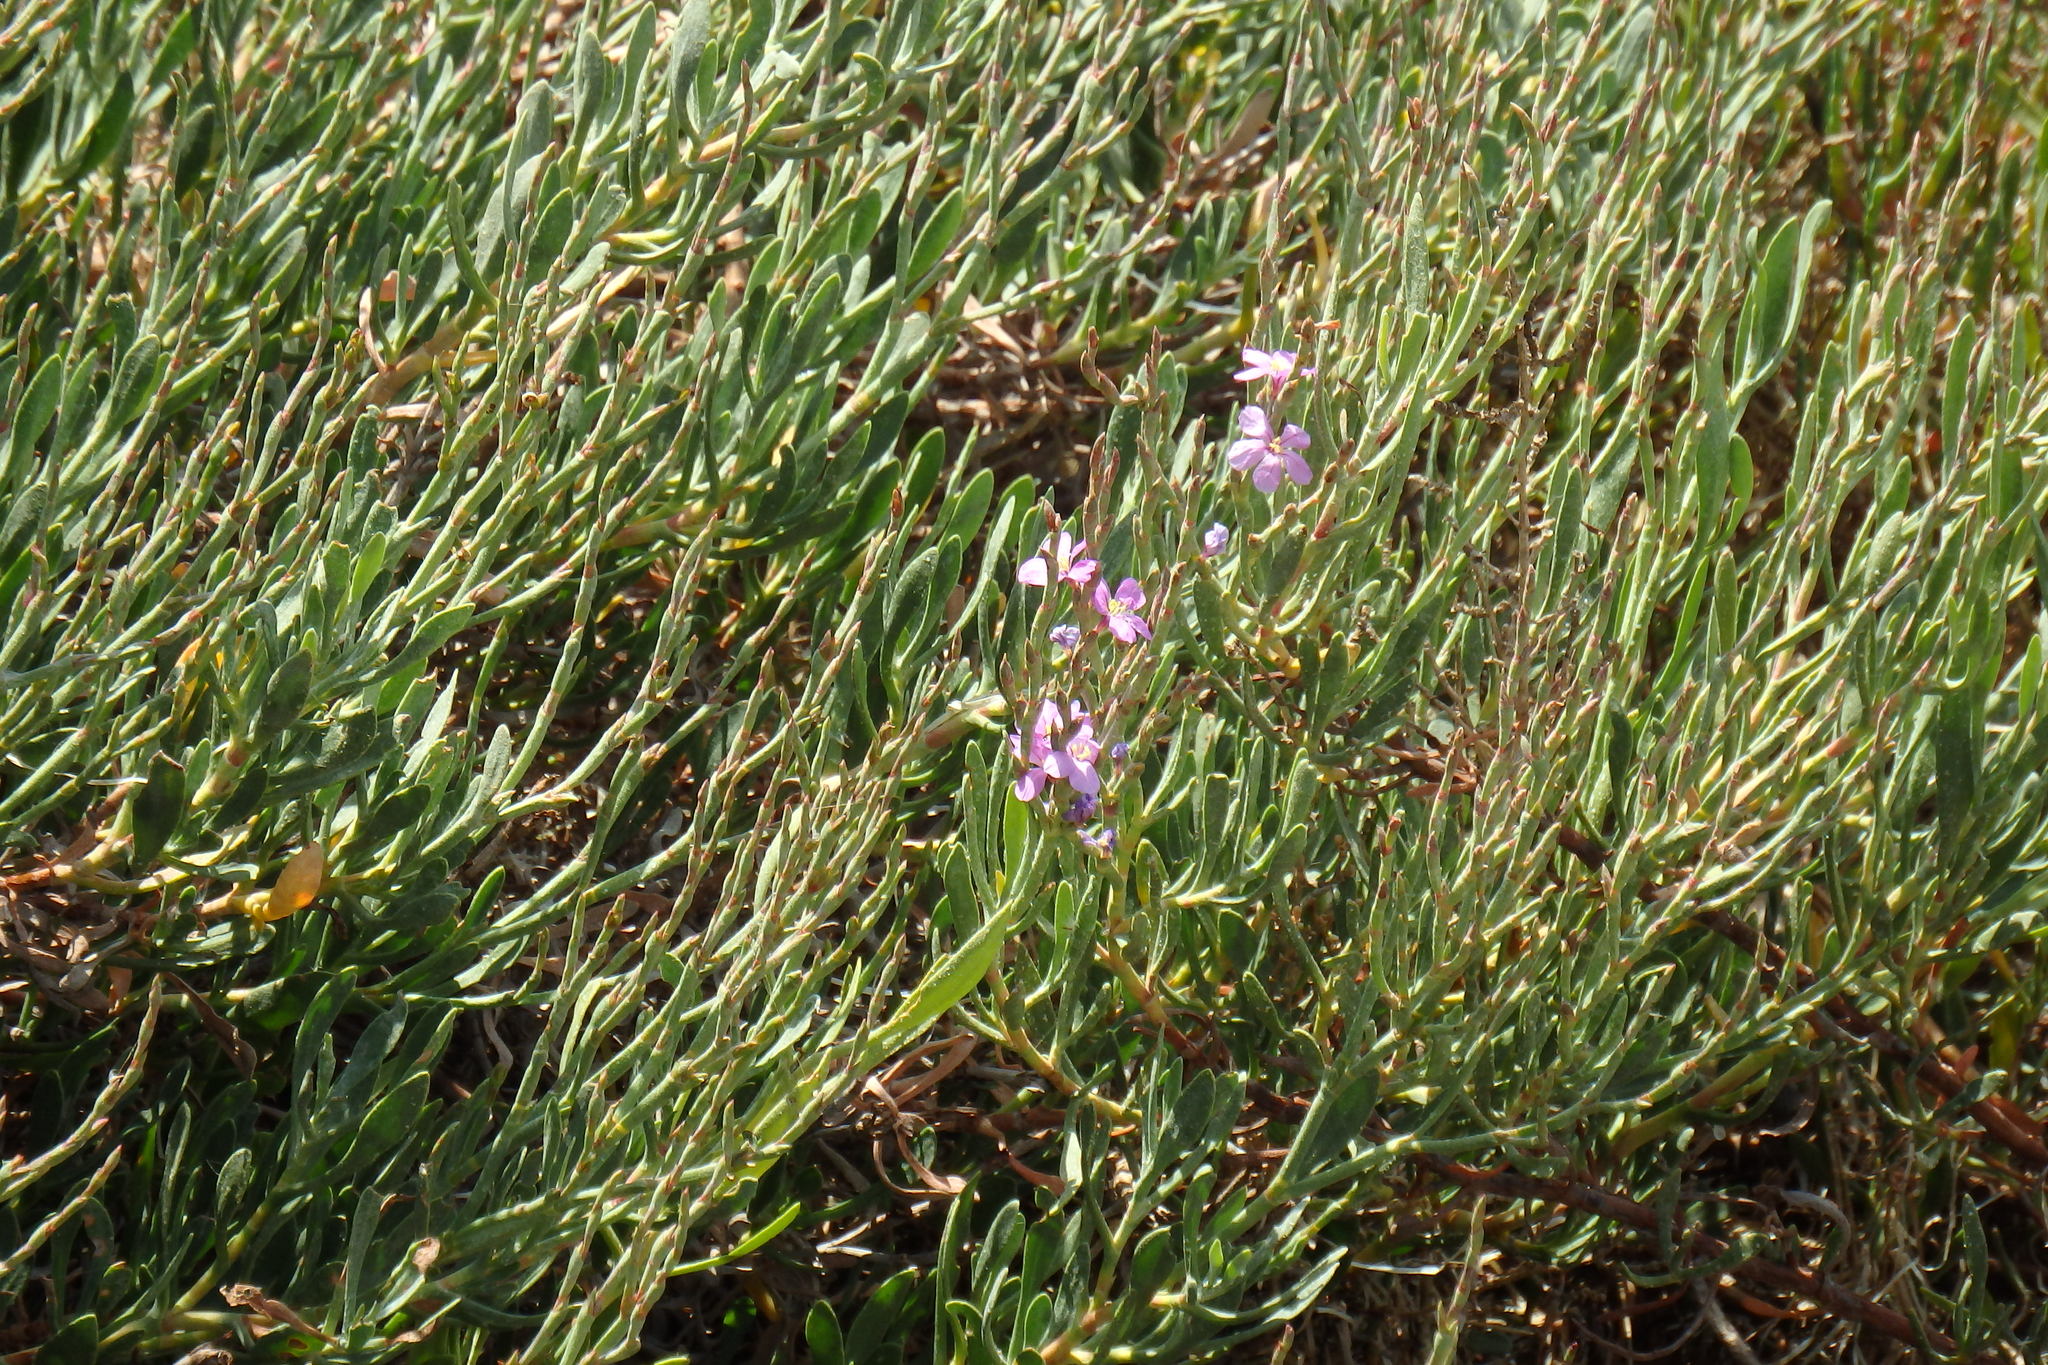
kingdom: Plantae
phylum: Tracheophyta
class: Magnoliopsida
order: Caryophyllales
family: Plumbaginaceae
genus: Limoniastrum
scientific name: Limoniastrum monopetalum
